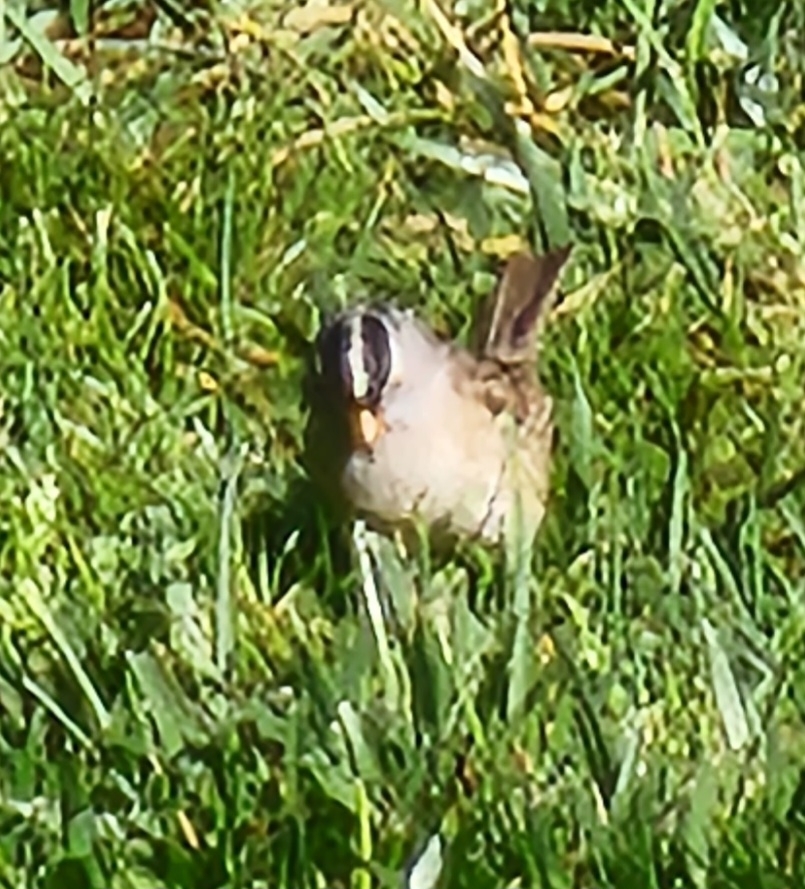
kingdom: Animalia
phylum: Chordata
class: Aves
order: Passeriformes
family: Passerellidae
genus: Zonotrichia
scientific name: Zonotrichia leucophrys
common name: White-crowned sparrow
